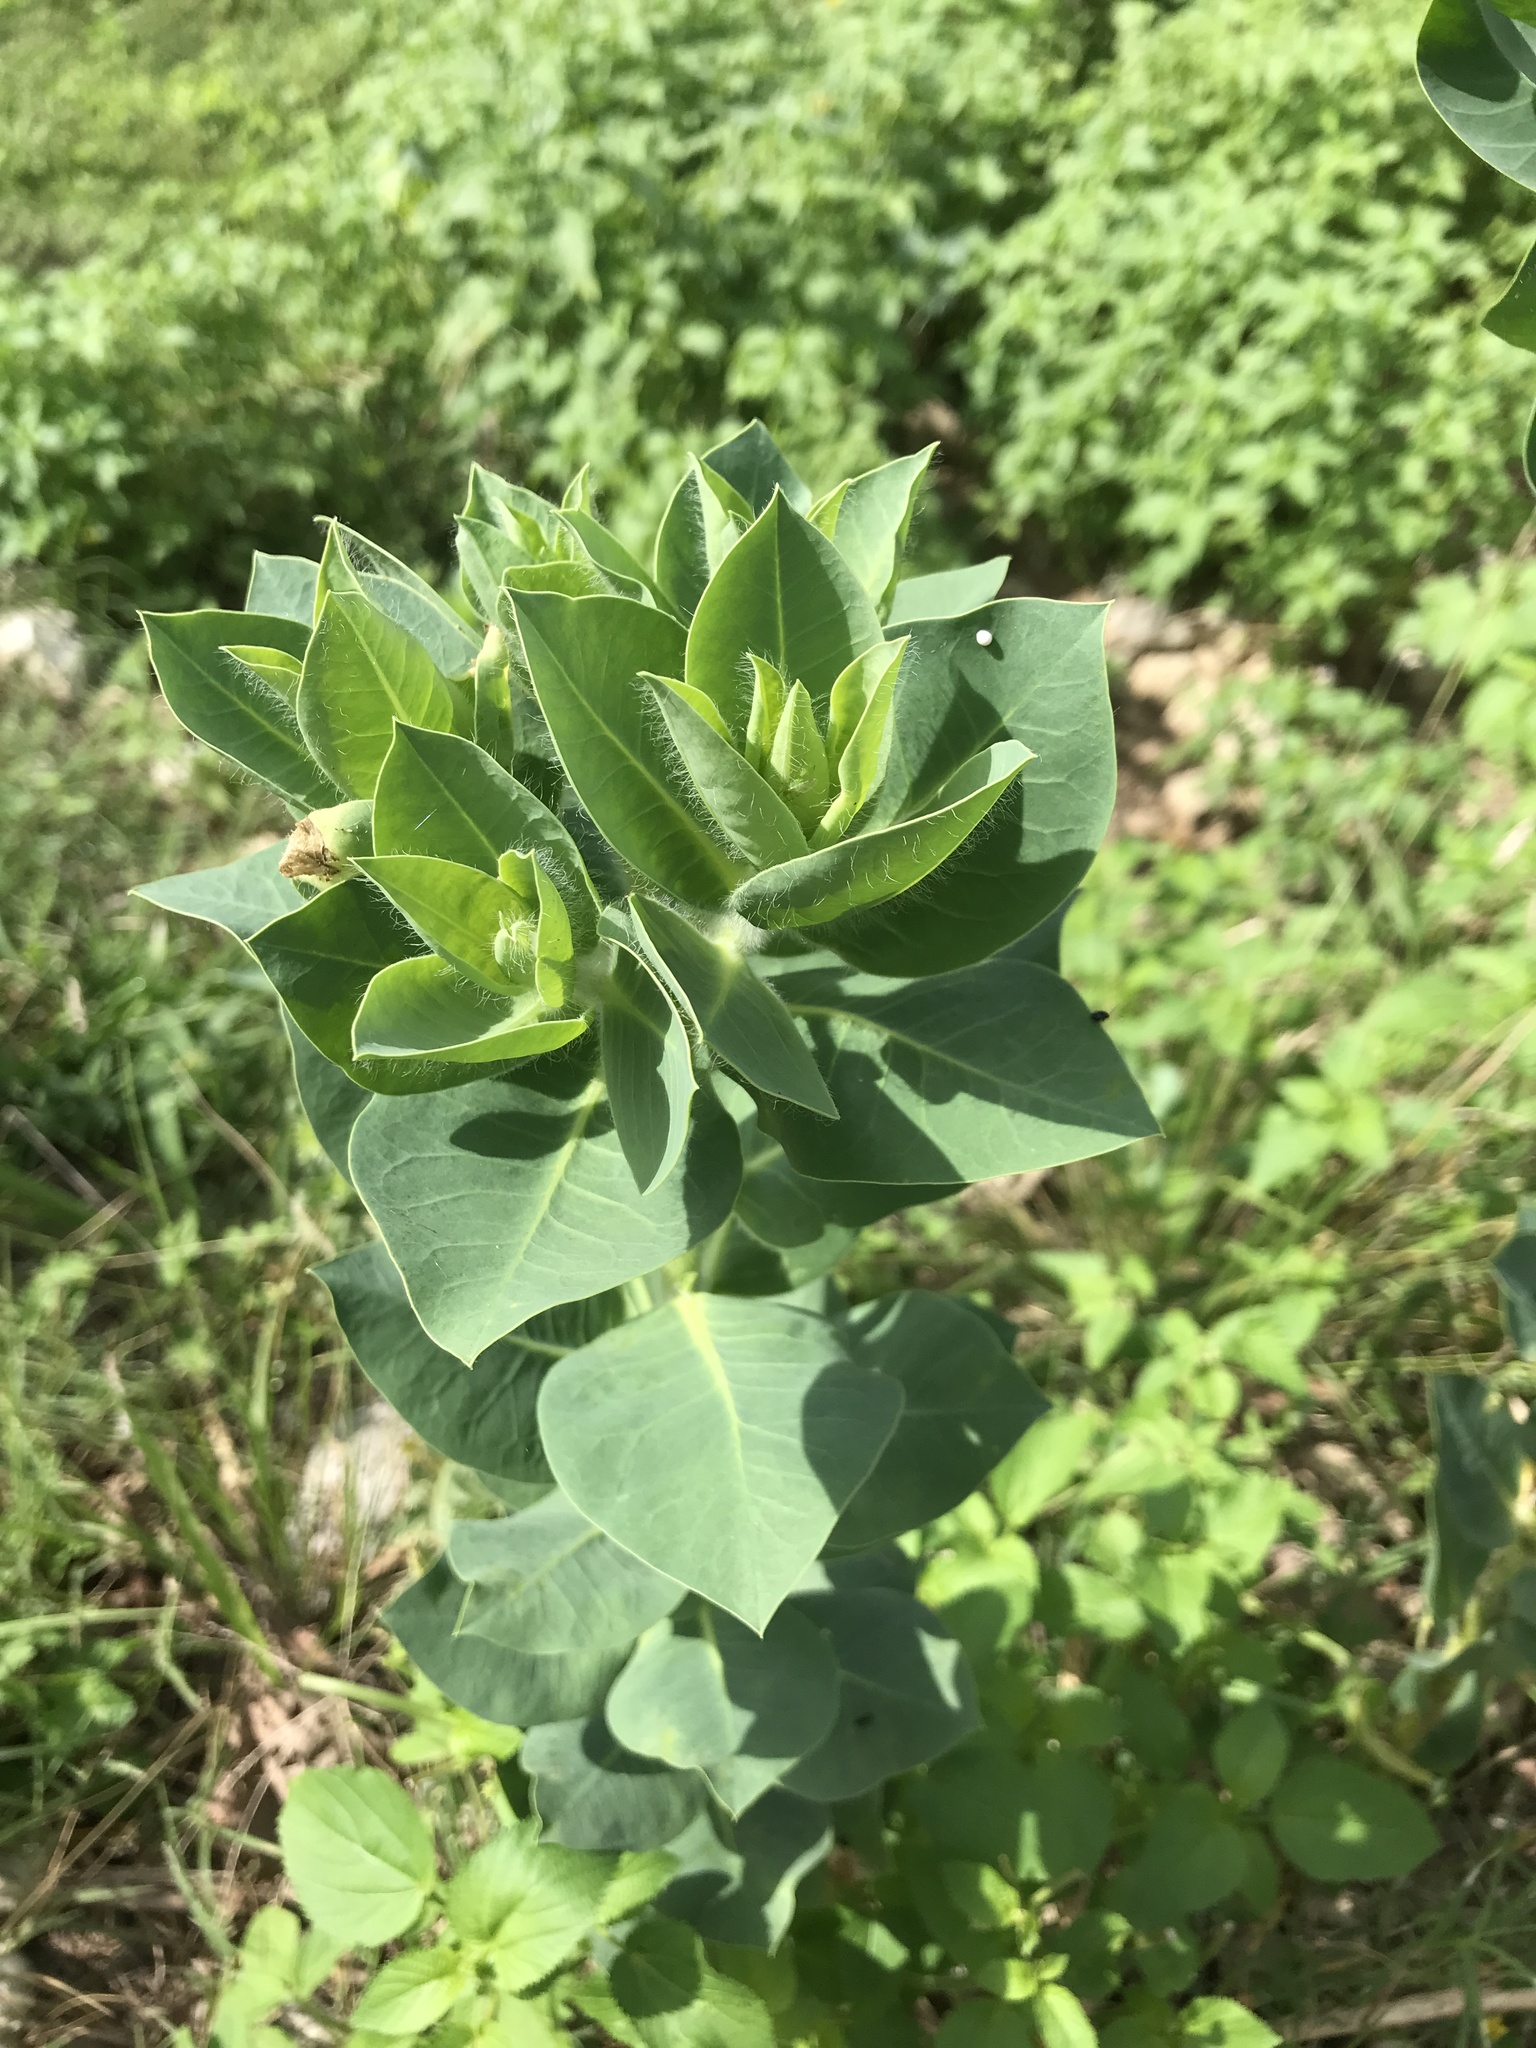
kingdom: Plantae
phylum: Tracheophyta
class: Magnoliopsida
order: Malpighiales
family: Euphorbiaceae
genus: Euphorbia
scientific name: Euphorbia marginata
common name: Ghostweed
